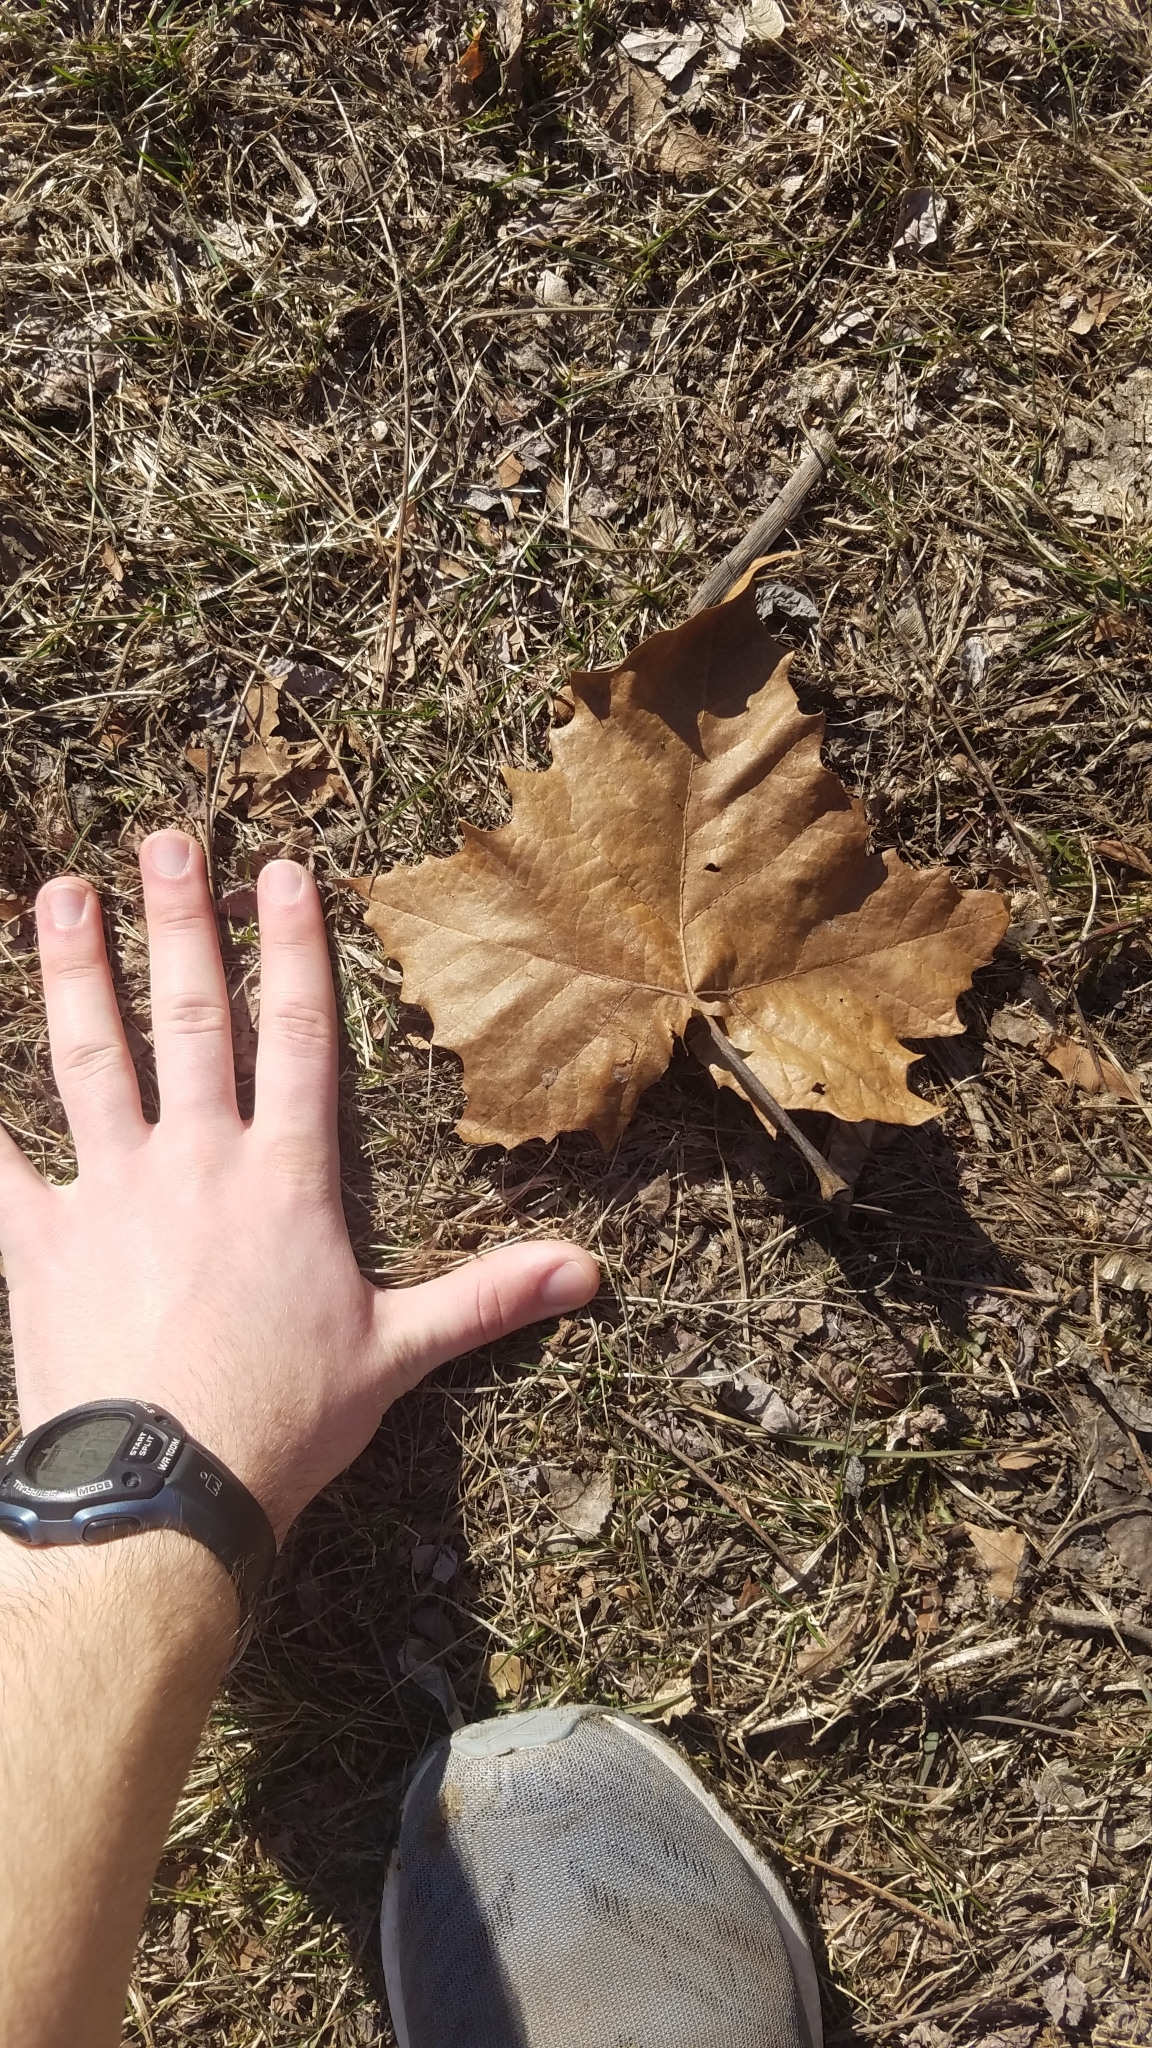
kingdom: Plantae
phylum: Tracheophyta
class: Magnoliopsida
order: Proteales
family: Platanaceae
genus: Platanus
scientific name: Platanus occidentalis
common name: American sycamore
